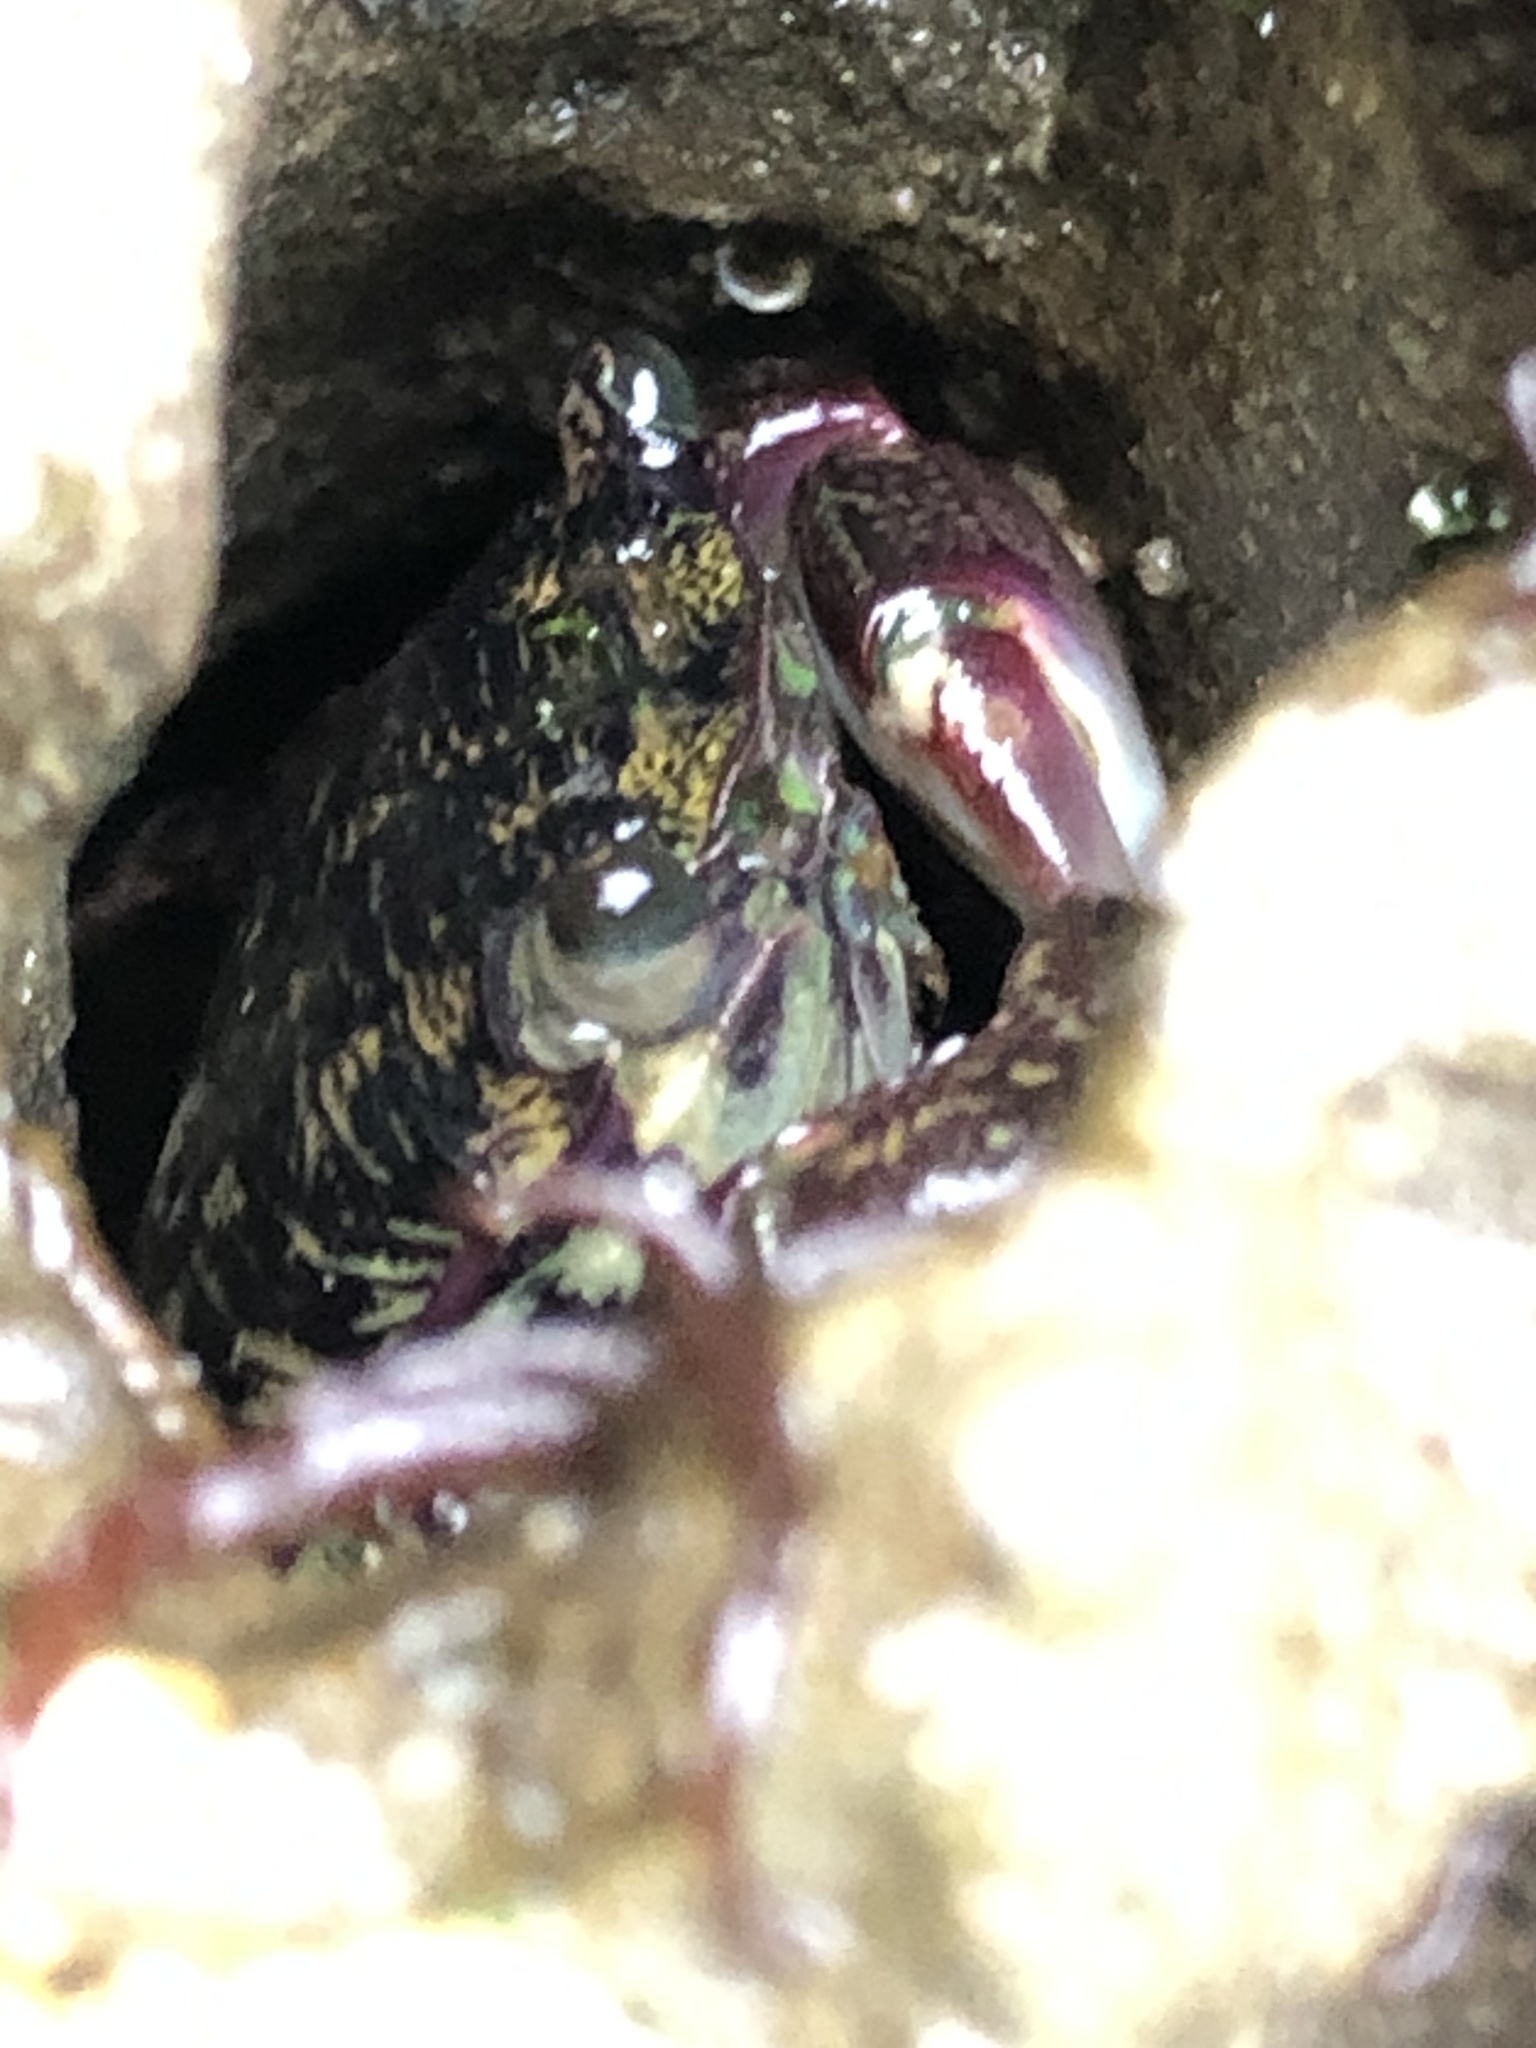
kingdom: Animalia
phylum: Arthropoda
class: Malacostraca
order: Decapoda
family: Grapsidae
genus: Pachygrapsus
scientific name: Pachygrapsus crassipes
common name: Striped shore crab
